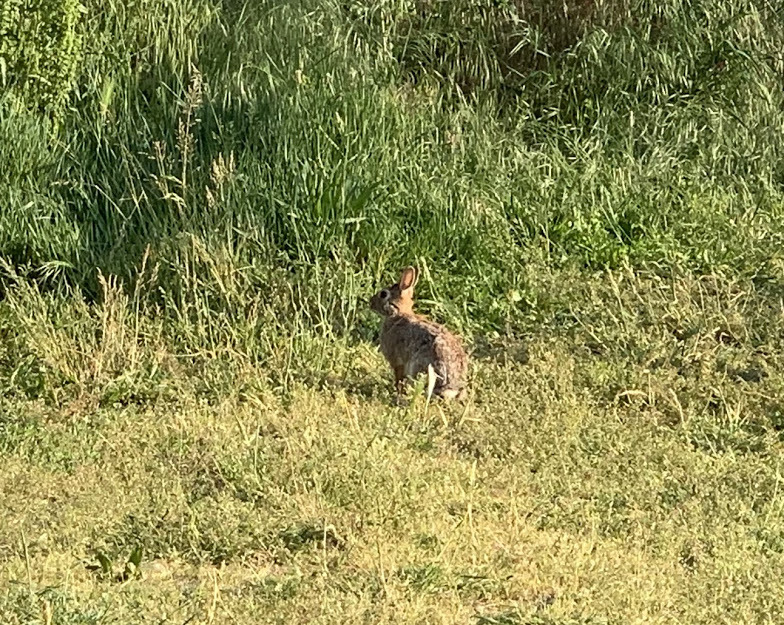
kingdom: Animalia
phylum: Chordata
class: Mammalia
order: Lagomorpha
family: Leporidae
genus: Sylvilagus
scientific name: Sylvilagus floridanus
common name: Eastern cottontail
